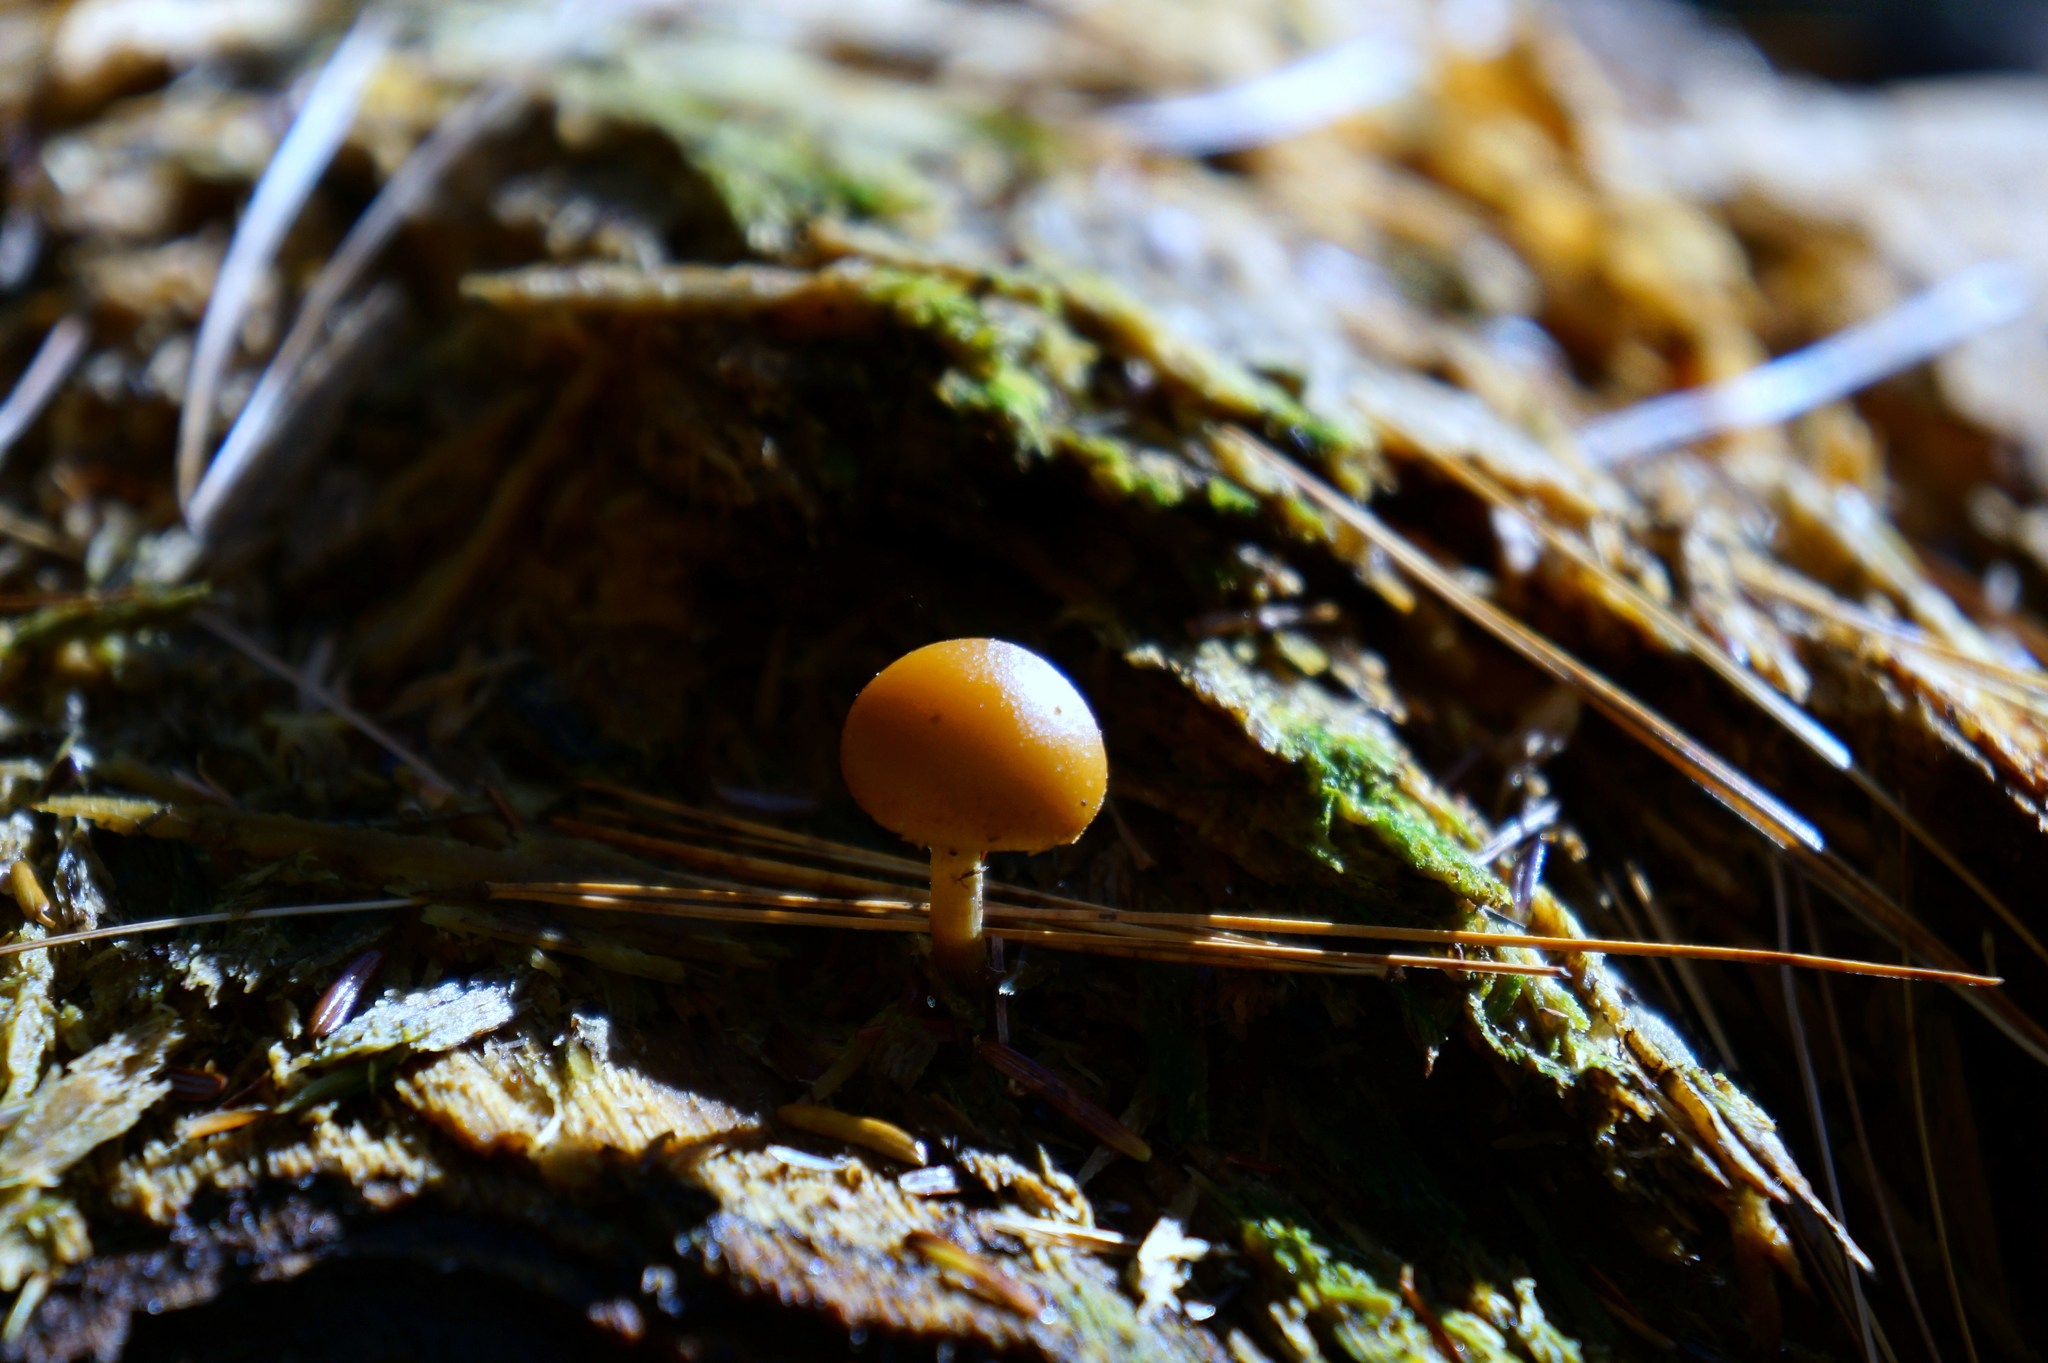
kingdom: Fungi
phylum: Basidiomycota
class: Agaricomycetes
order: Agaricales
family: Hymenogastraceae
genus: Galerina
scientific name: Galerina marginata
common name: Funeral bell
